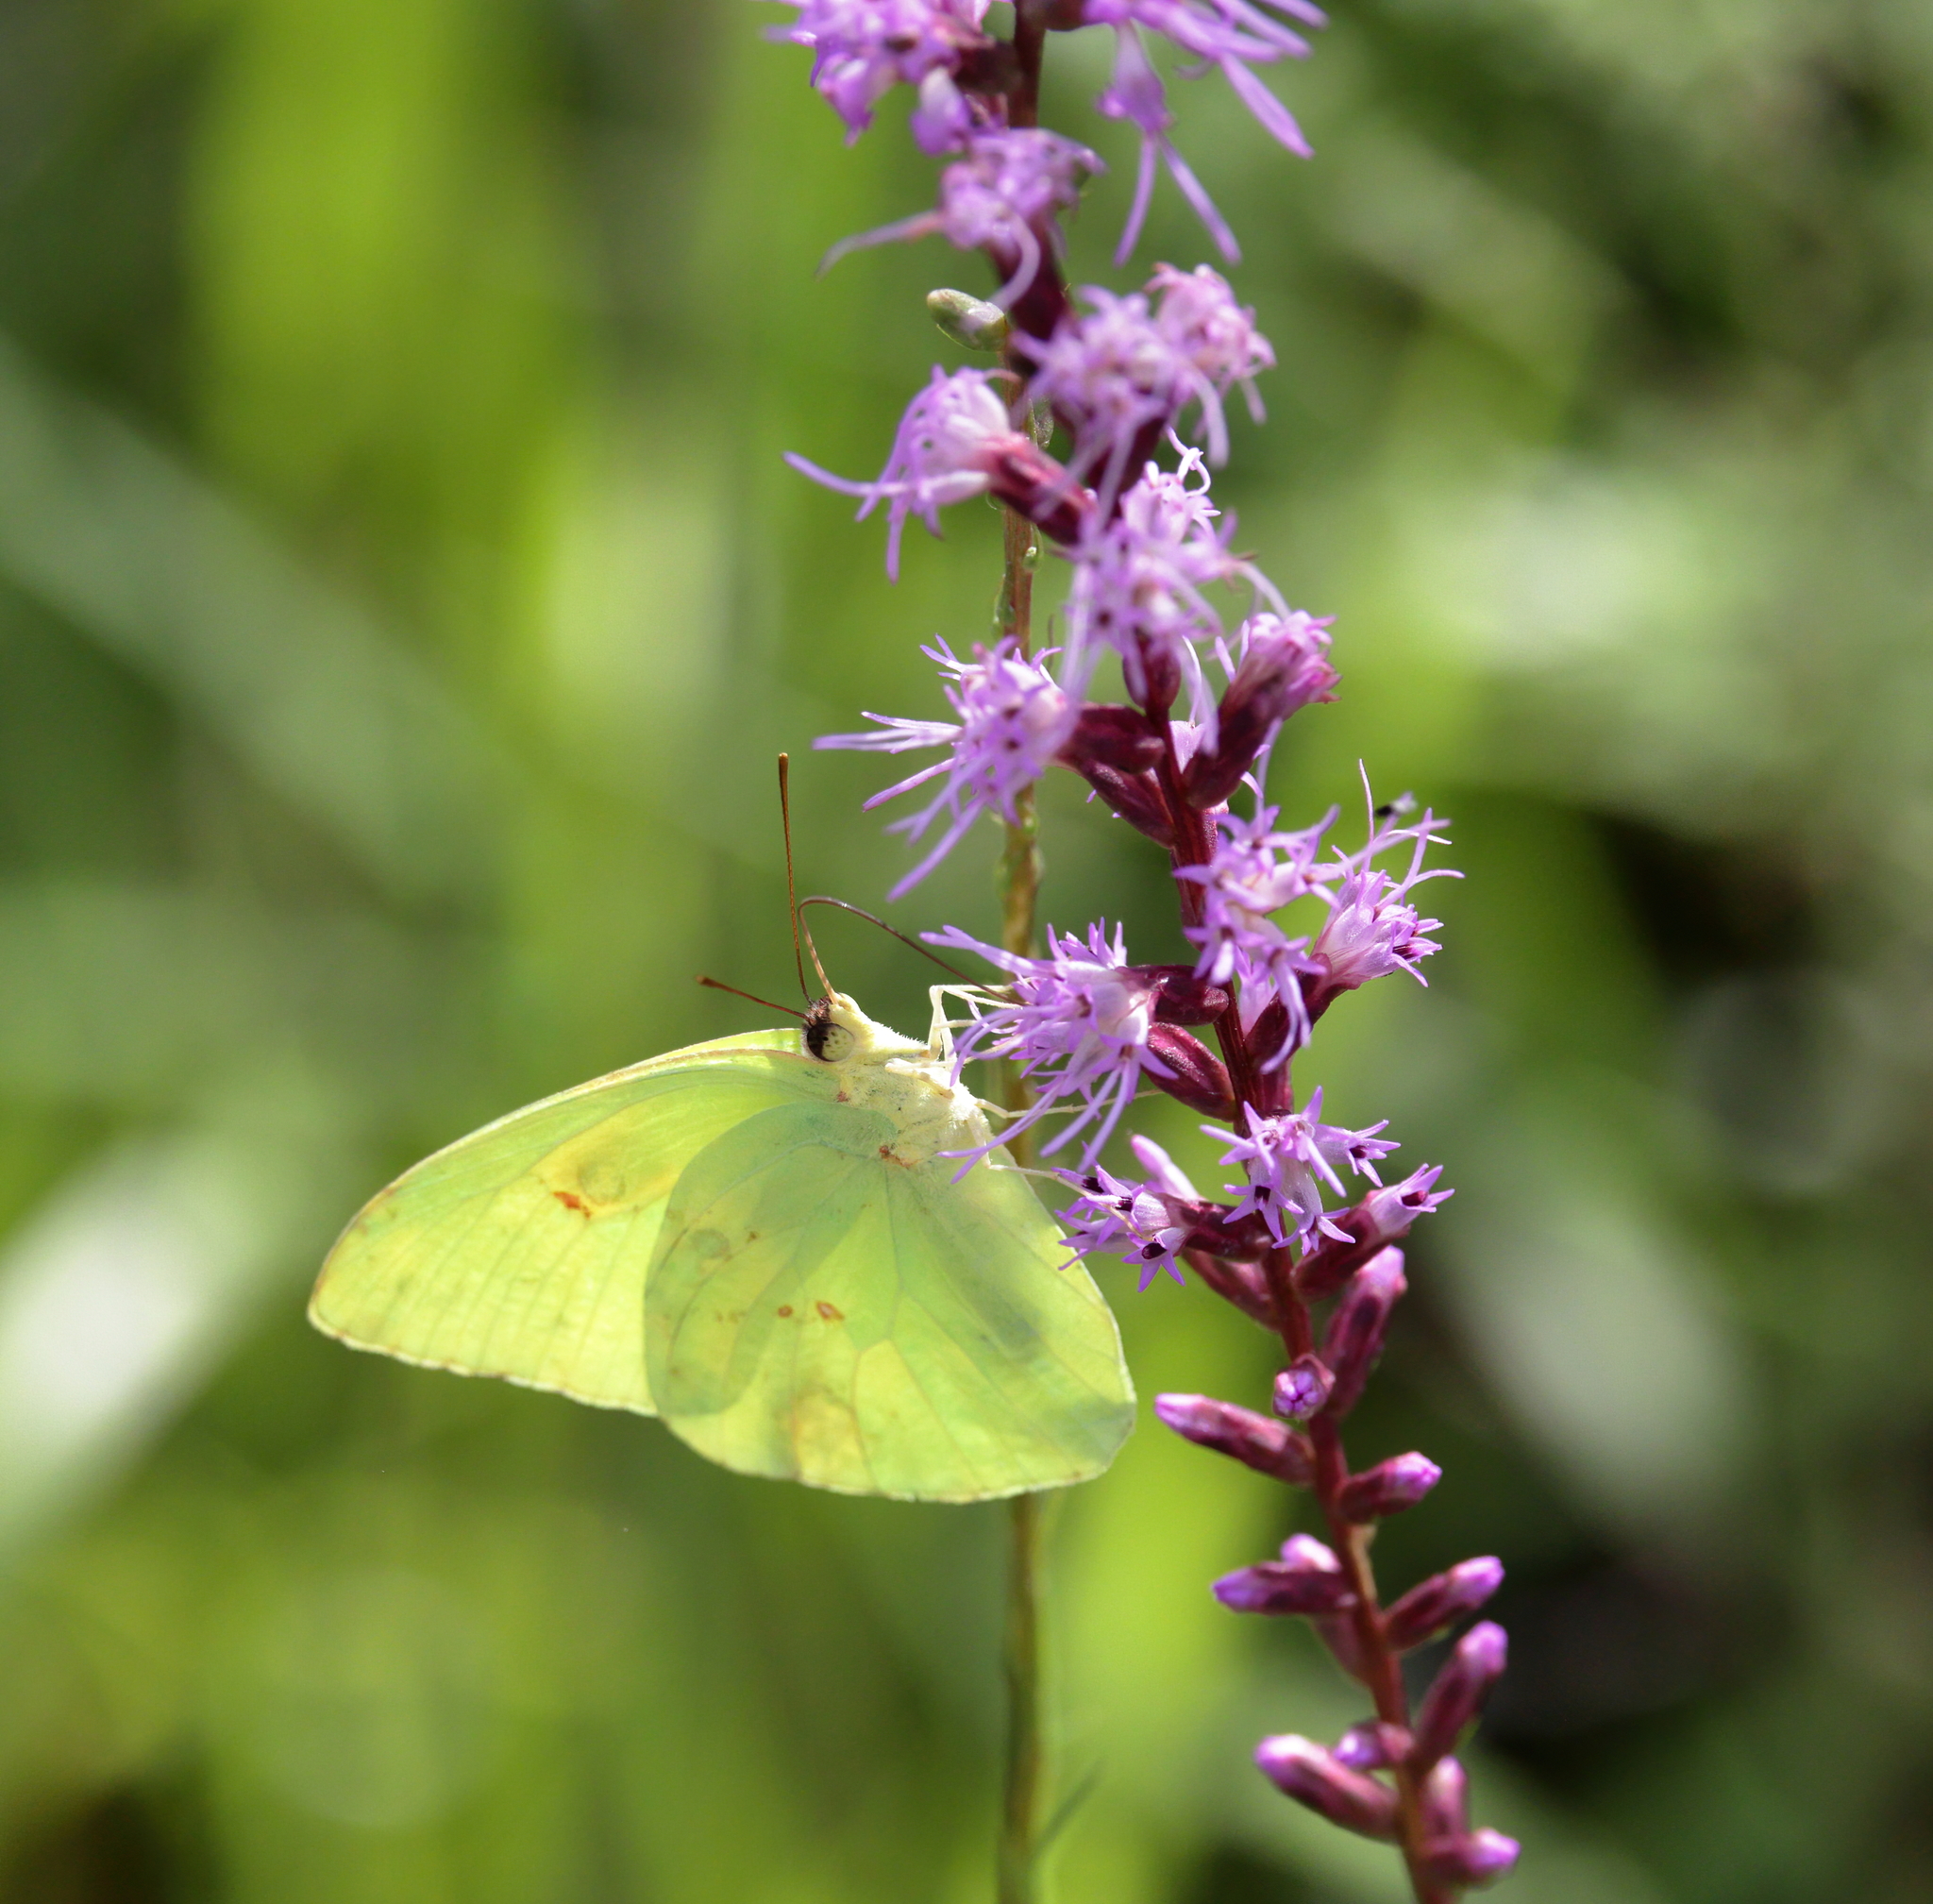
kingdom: Animalia
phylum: Arthropoda
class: Insecta
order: Lepidoptera
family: Pieridae
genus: Phoebis
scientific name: Phoebis sennae
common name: Cloudless sulphur
